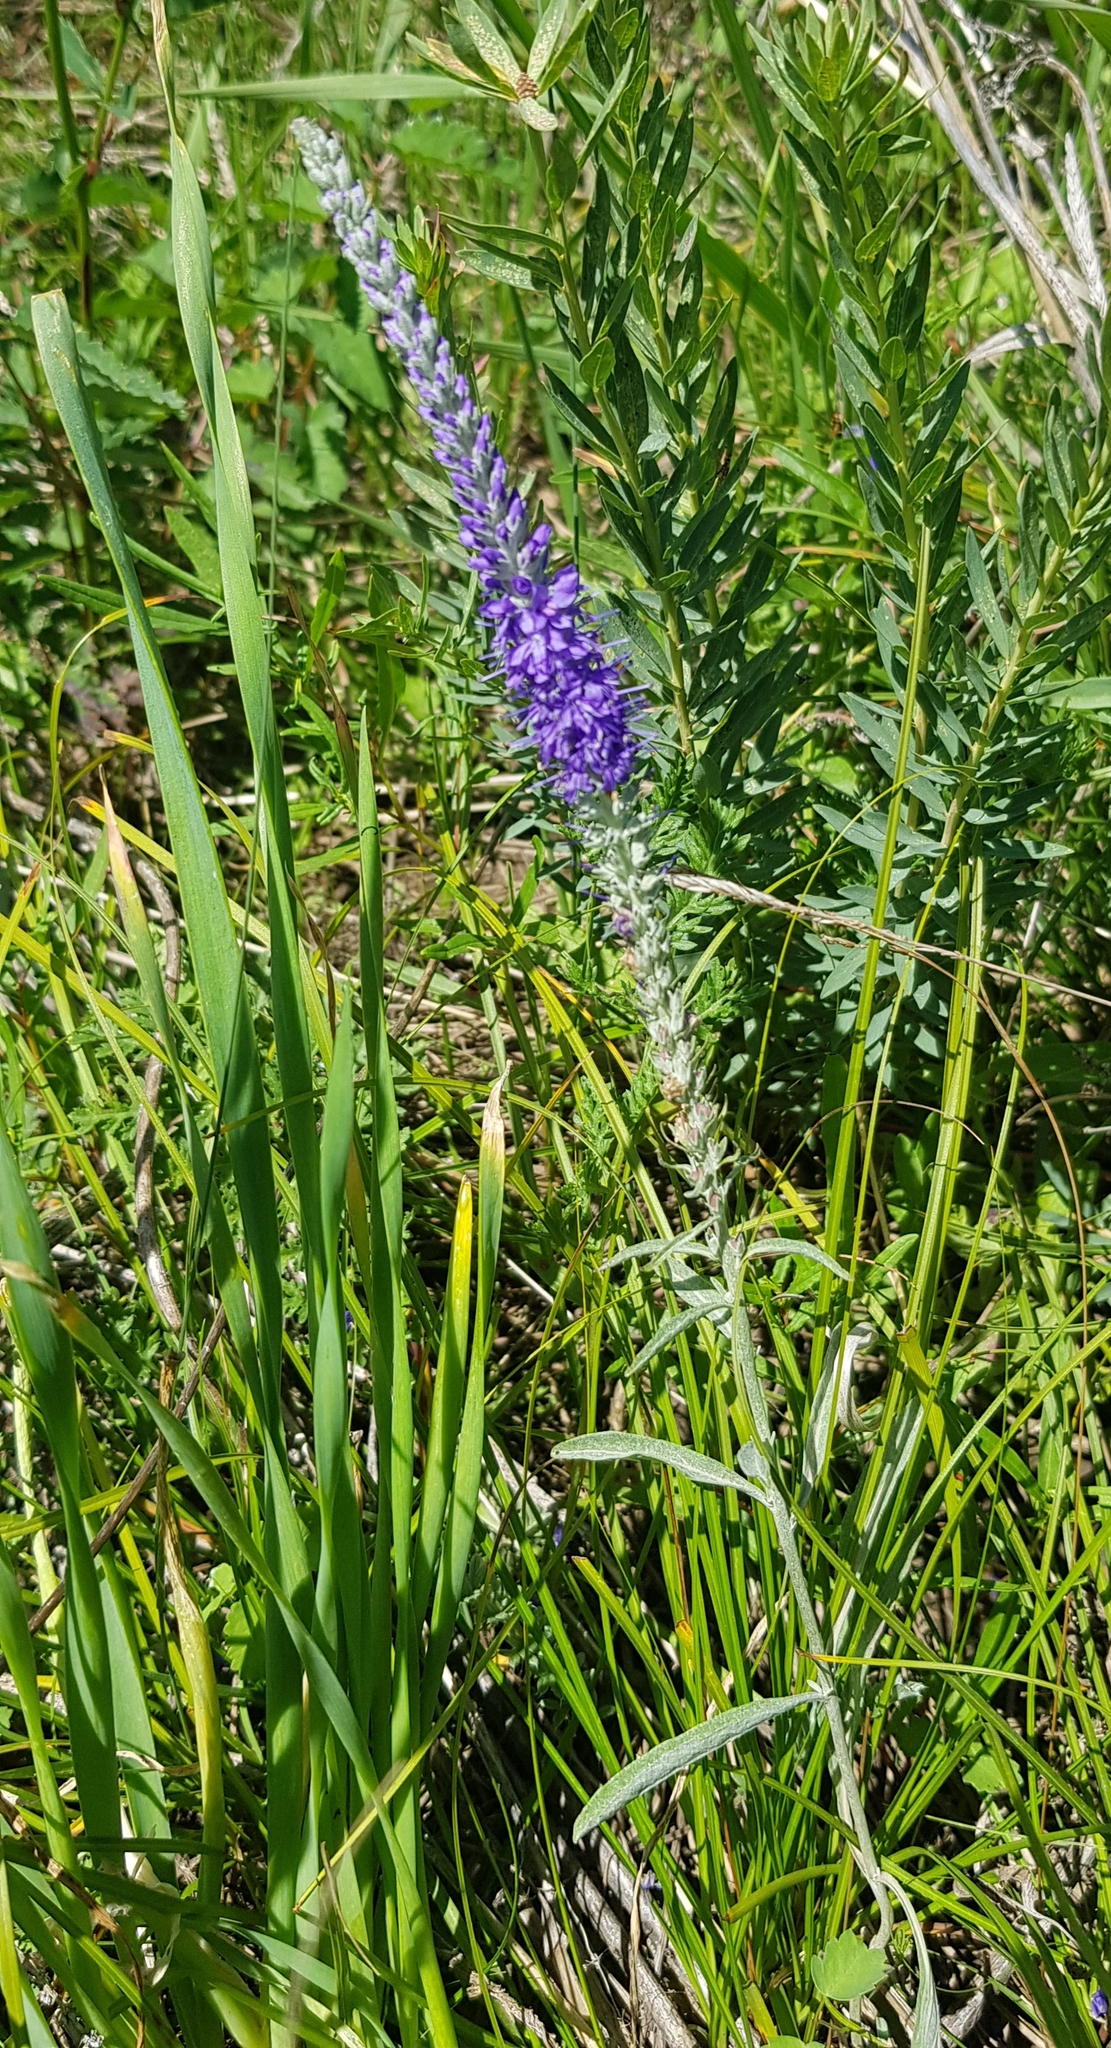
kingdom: Plantae
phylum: Tracheophyta
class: Magnoliopsida
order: Lamiales
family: Plantaginaceae
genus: Veronica
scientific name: Veronica incana
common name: Silver speedwell
